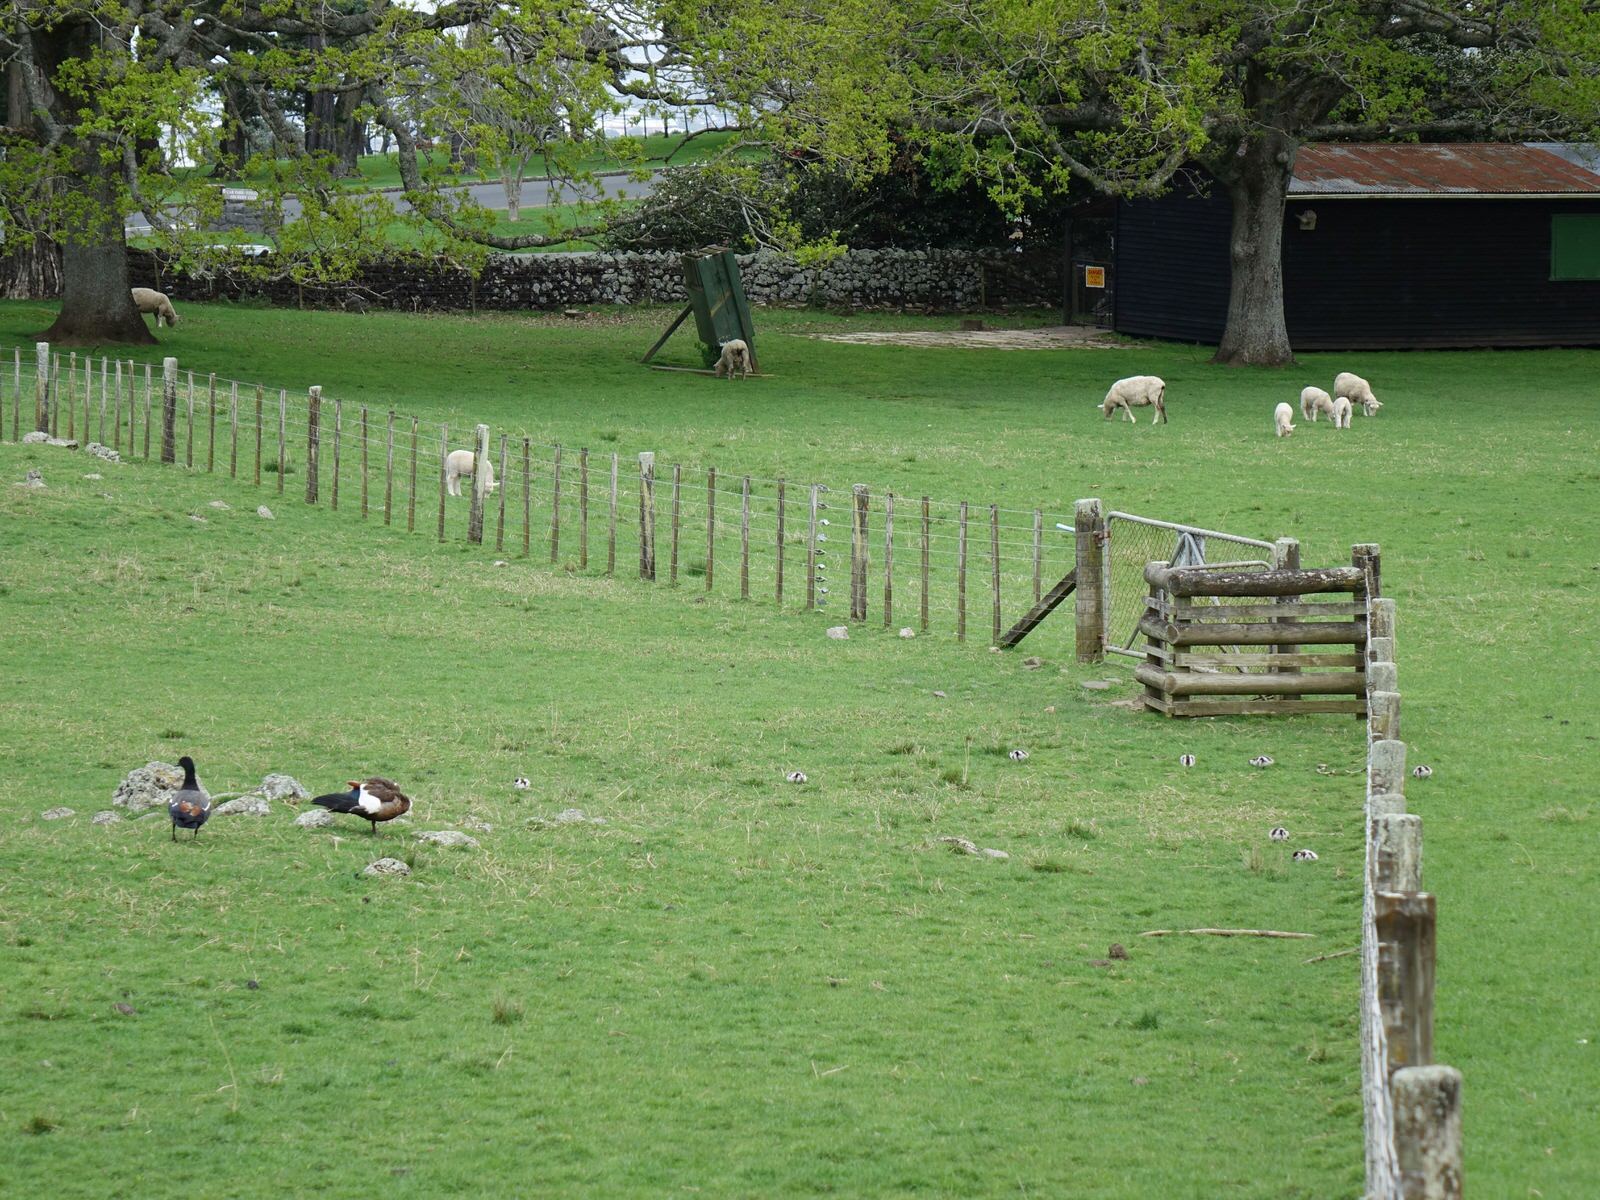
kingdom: Animalia
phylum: Chordata
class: Aves
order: Anseriformes
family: Anatidae
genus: Tadorna
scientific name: Tadorna variegata
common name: Paradise shelduck
